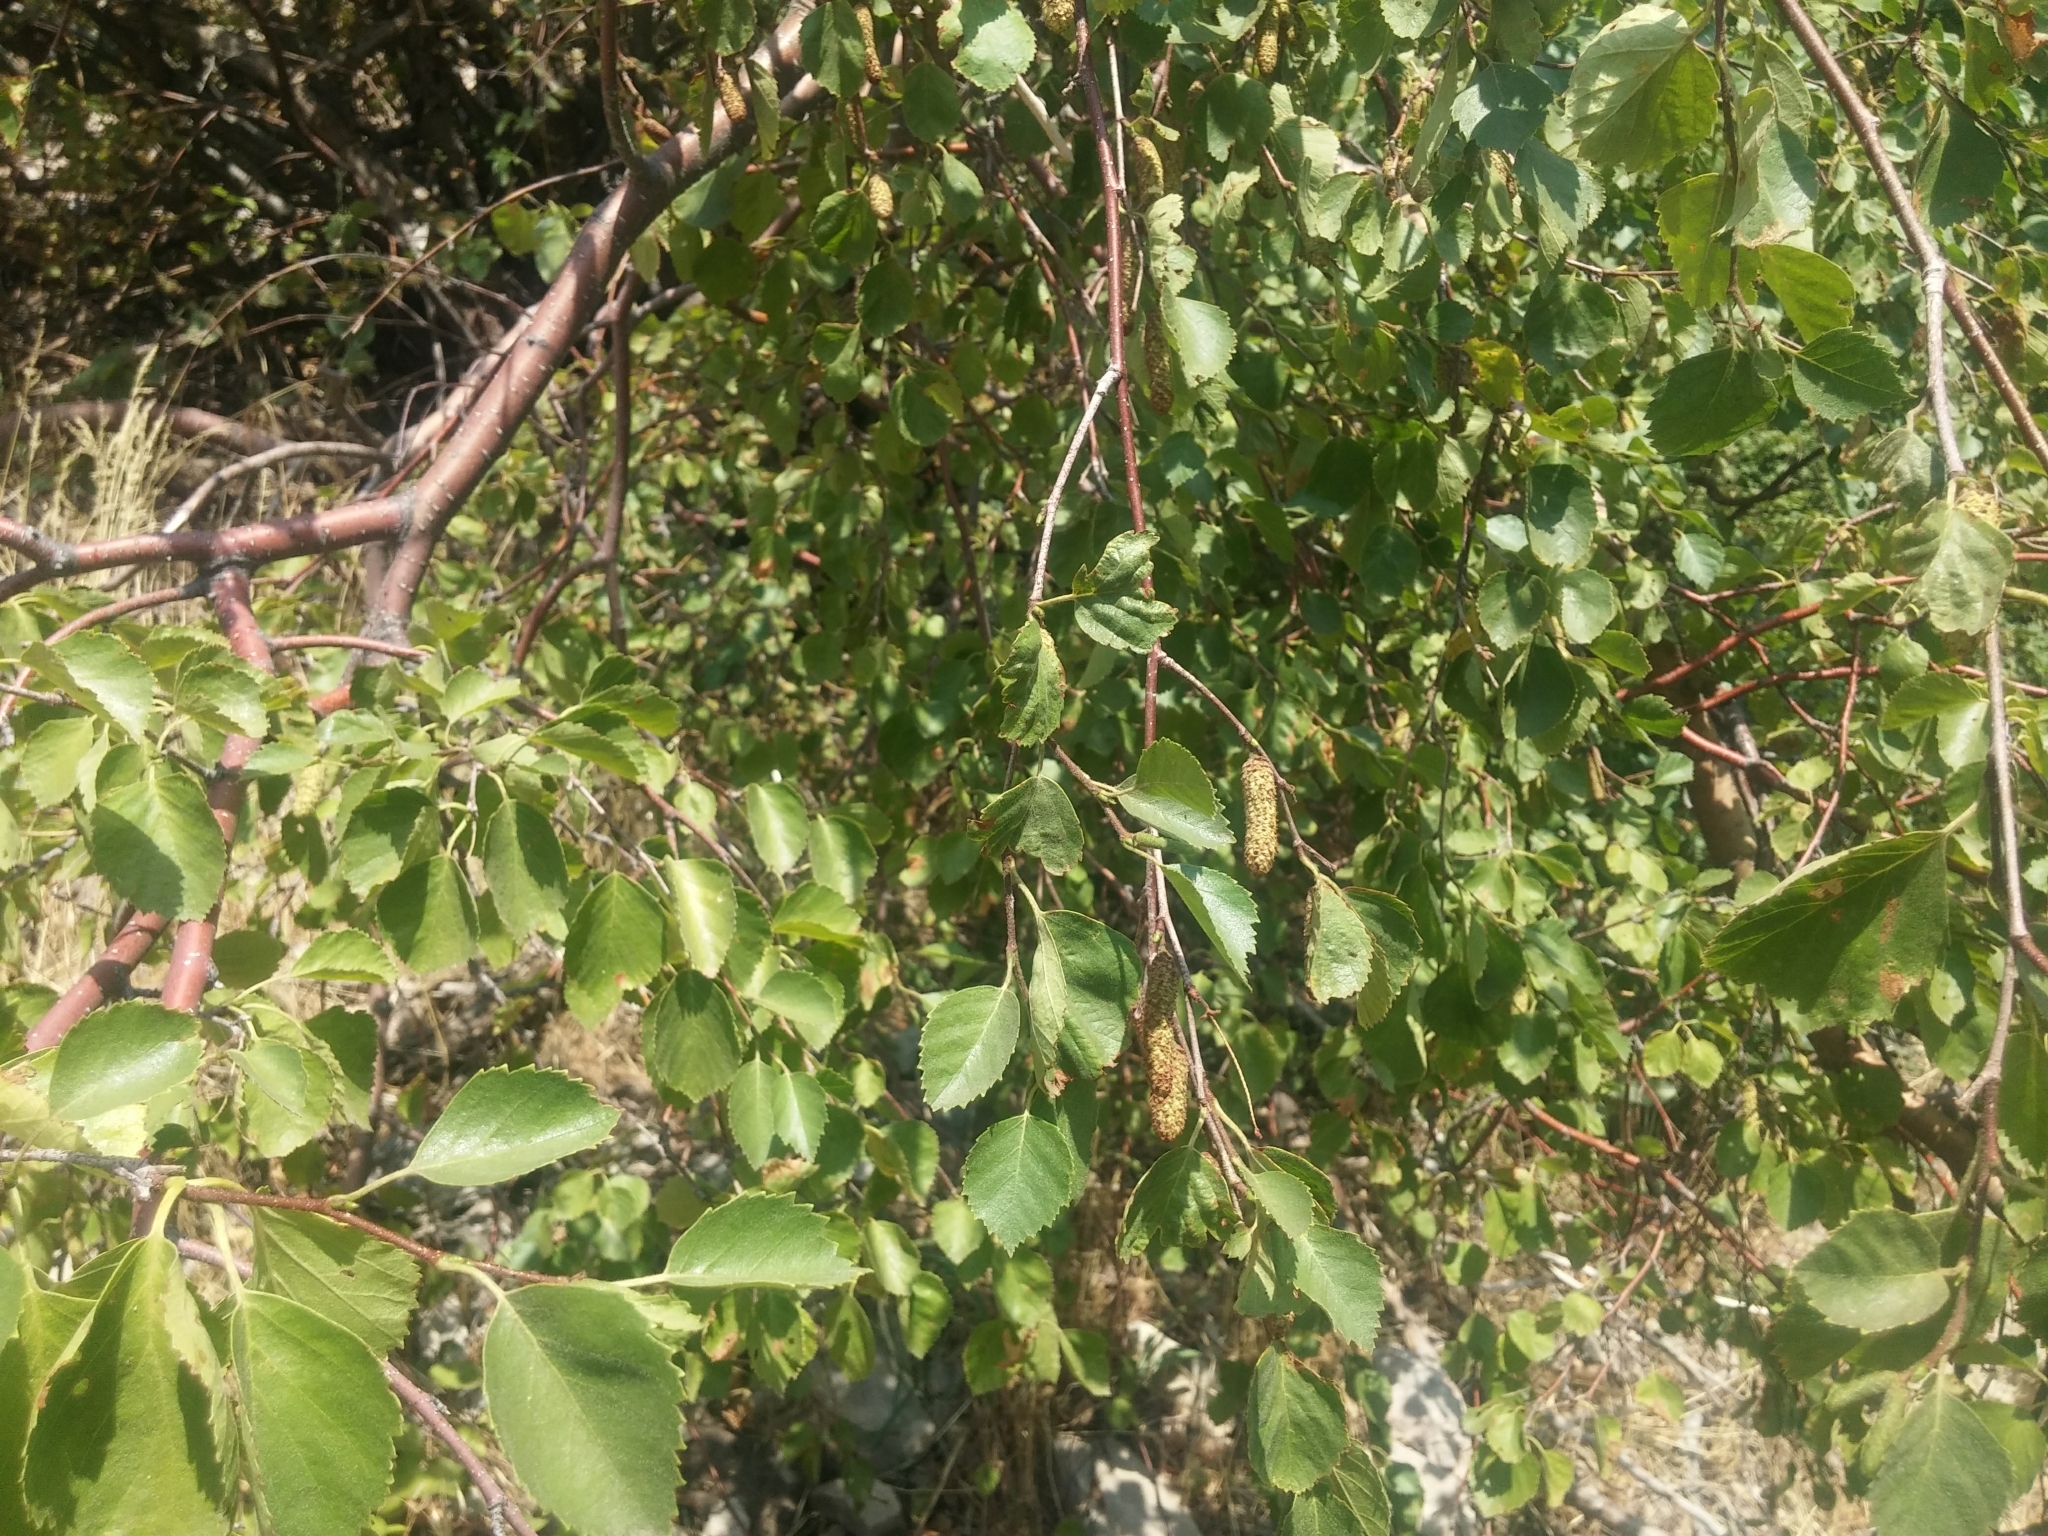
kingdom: Plantae
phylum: Tracheophyta
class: Magnoliopsida
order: Fagales
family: Betulaceae
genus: Betula
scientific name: Betula occidentalis
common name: River birch
